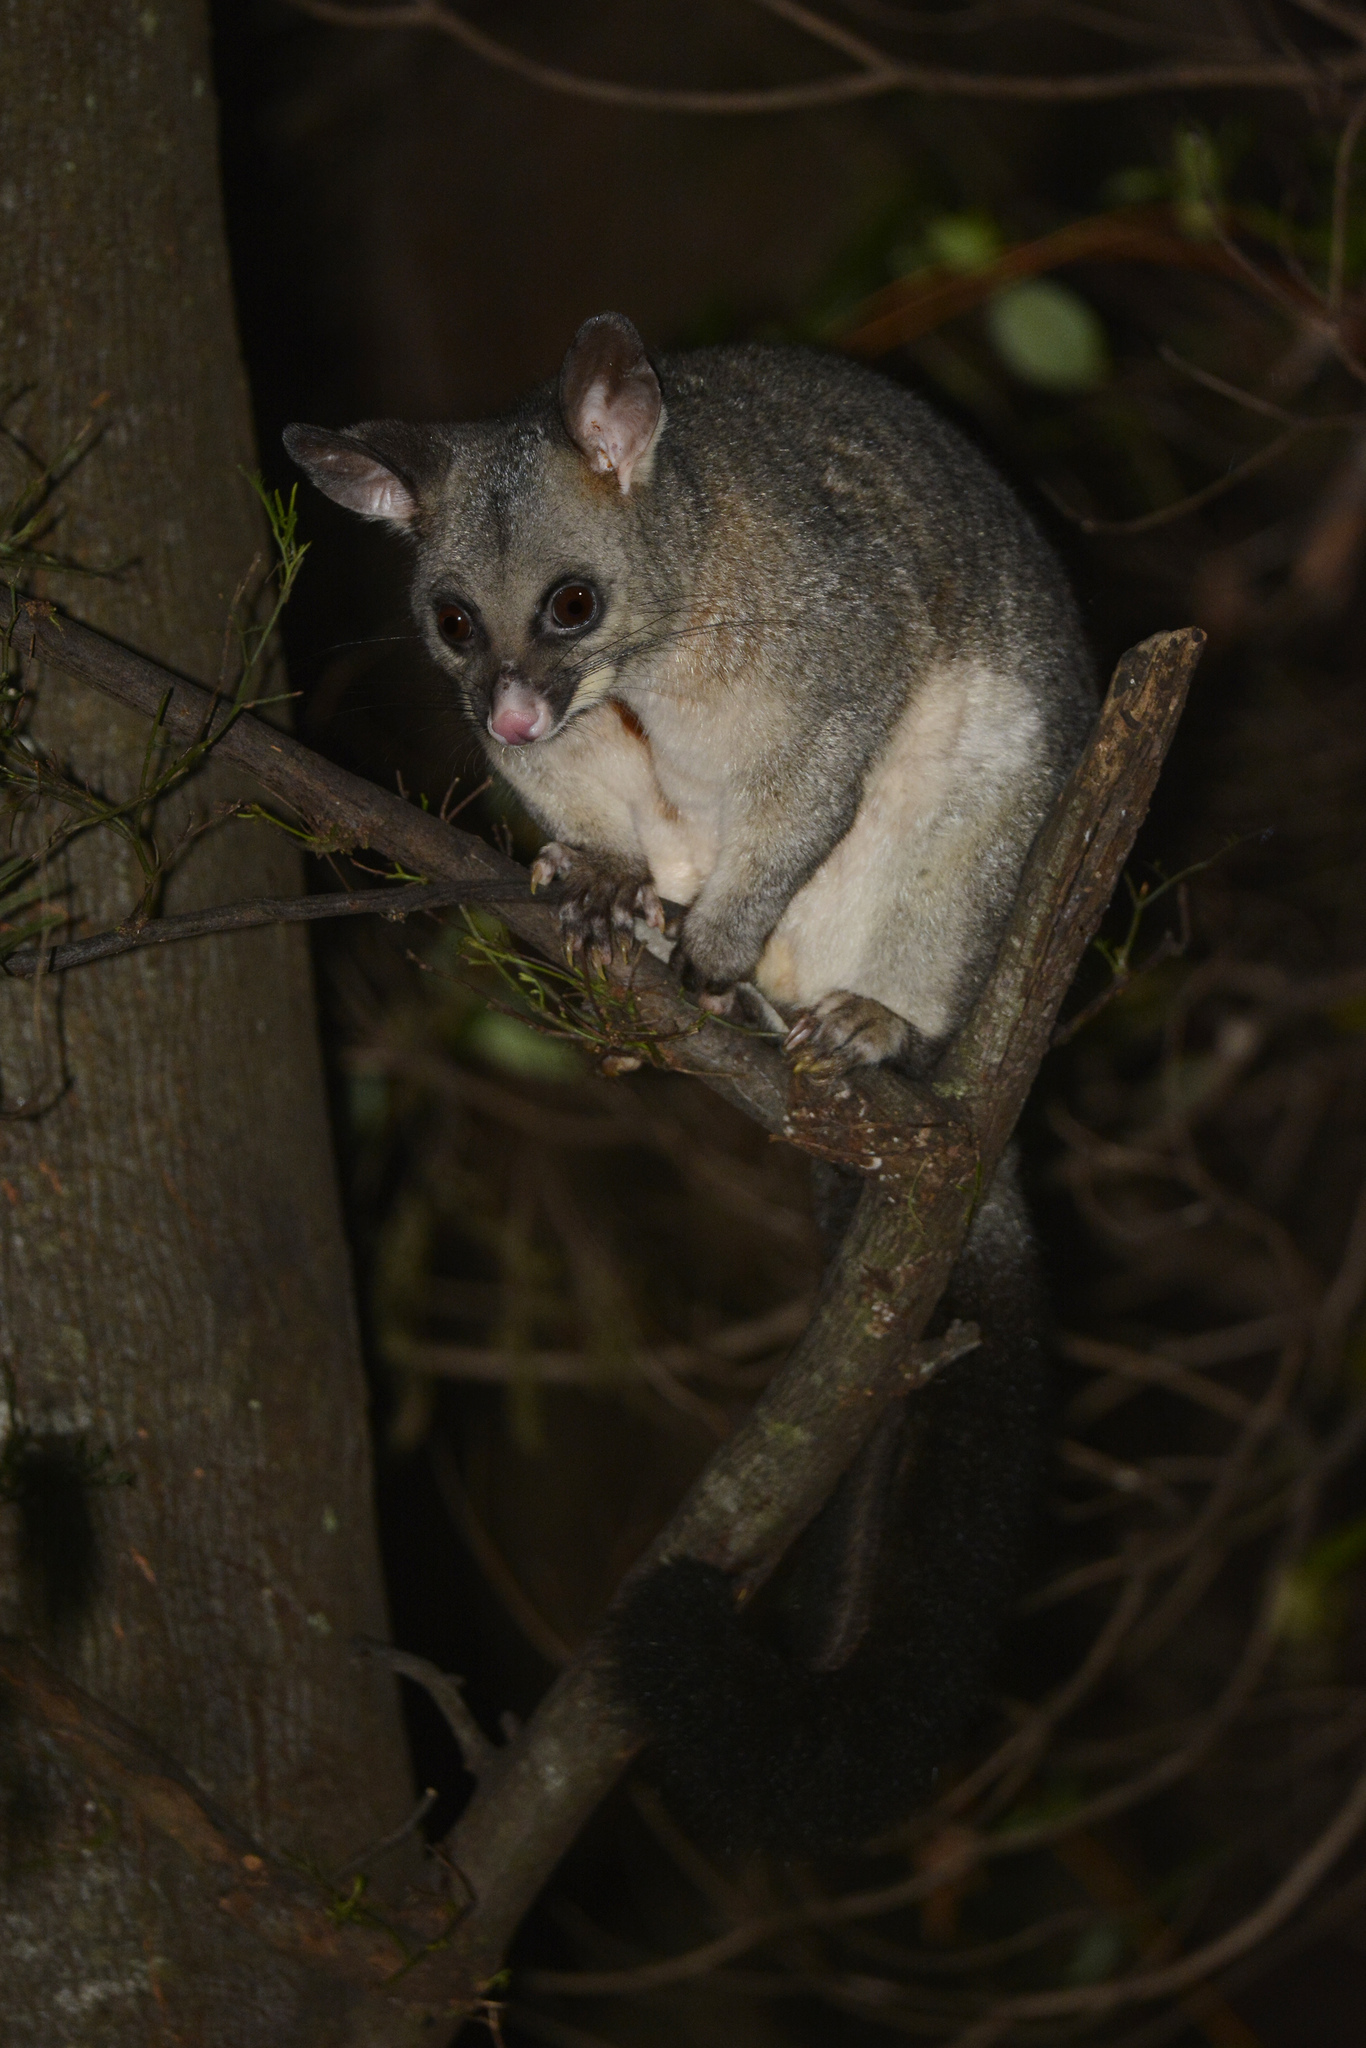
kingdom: Animalia
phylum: Chordata
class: Mammalia
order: Diprotodontia
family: Phalangeridae
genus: Trichosurus
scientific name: Trichosurus vulpecula
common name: Common brushtail
